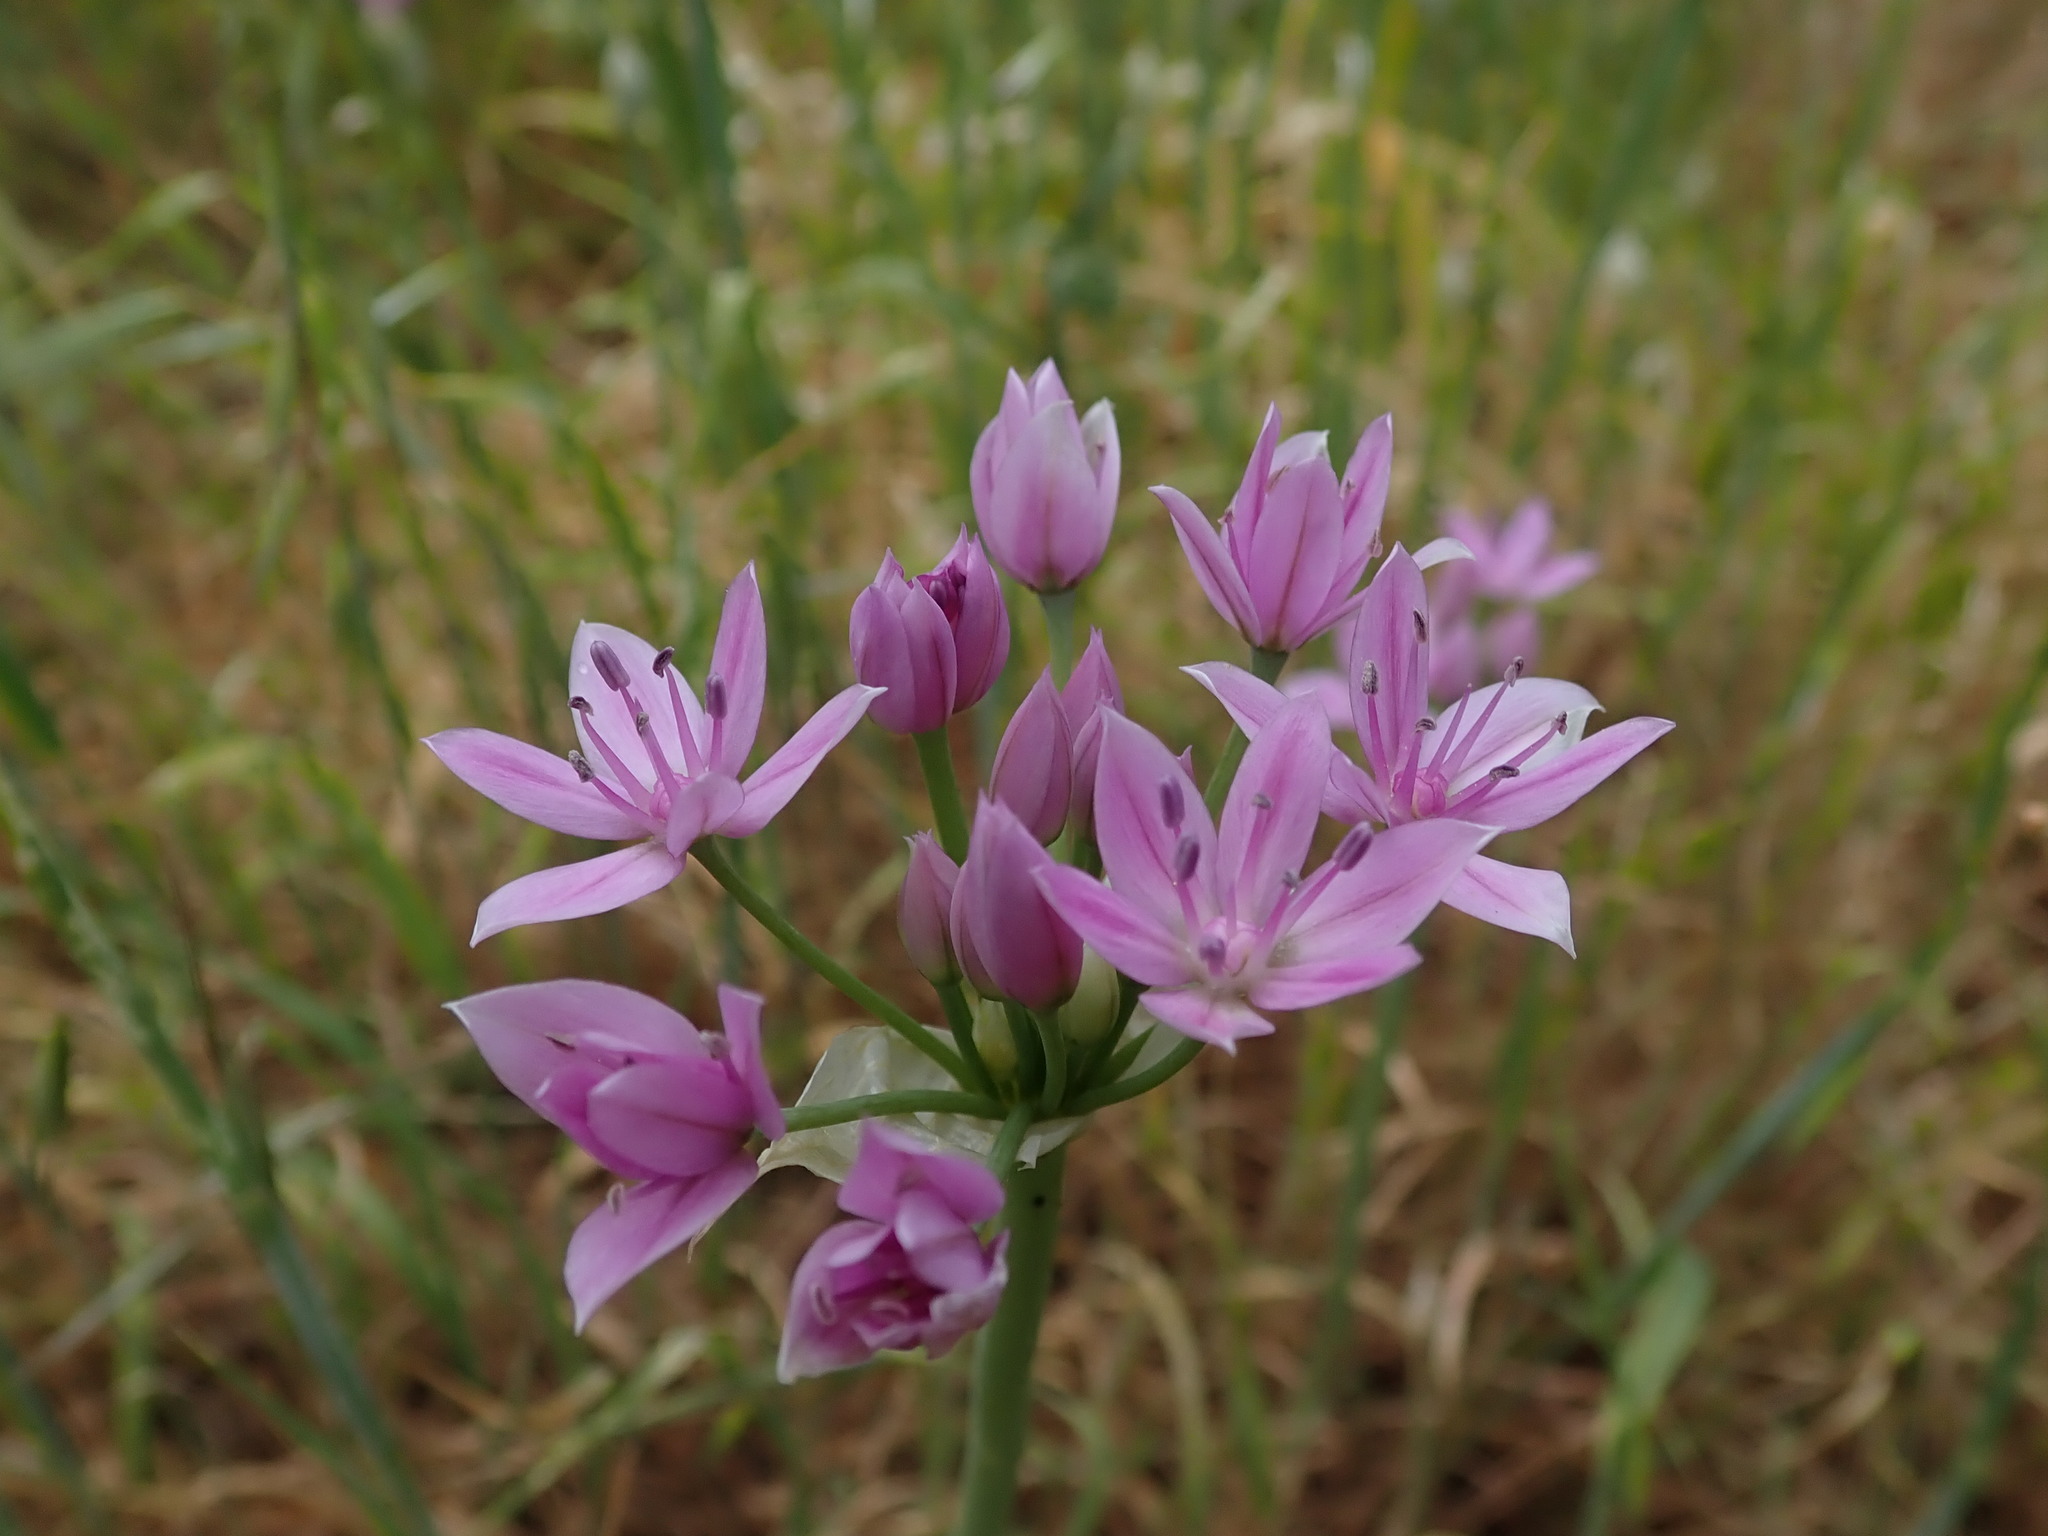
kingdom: Plantae
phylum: Tracheophyta
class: Liliopsida
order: Asparagales
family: Amaryllidaceae
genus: Allium
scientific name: Allium unifolium
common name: American garlic
